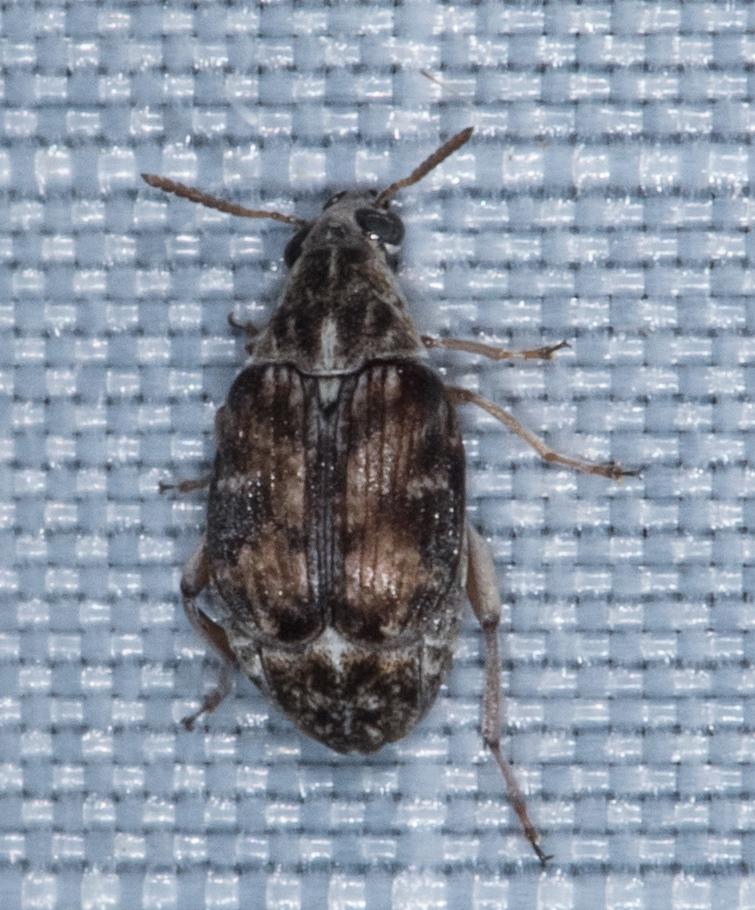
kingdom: Animalia
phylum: Arthropoda
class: Insecta
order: Coleoptera
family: Chrysomelidae
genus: Algarobius
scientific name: Algarobius prosopis
